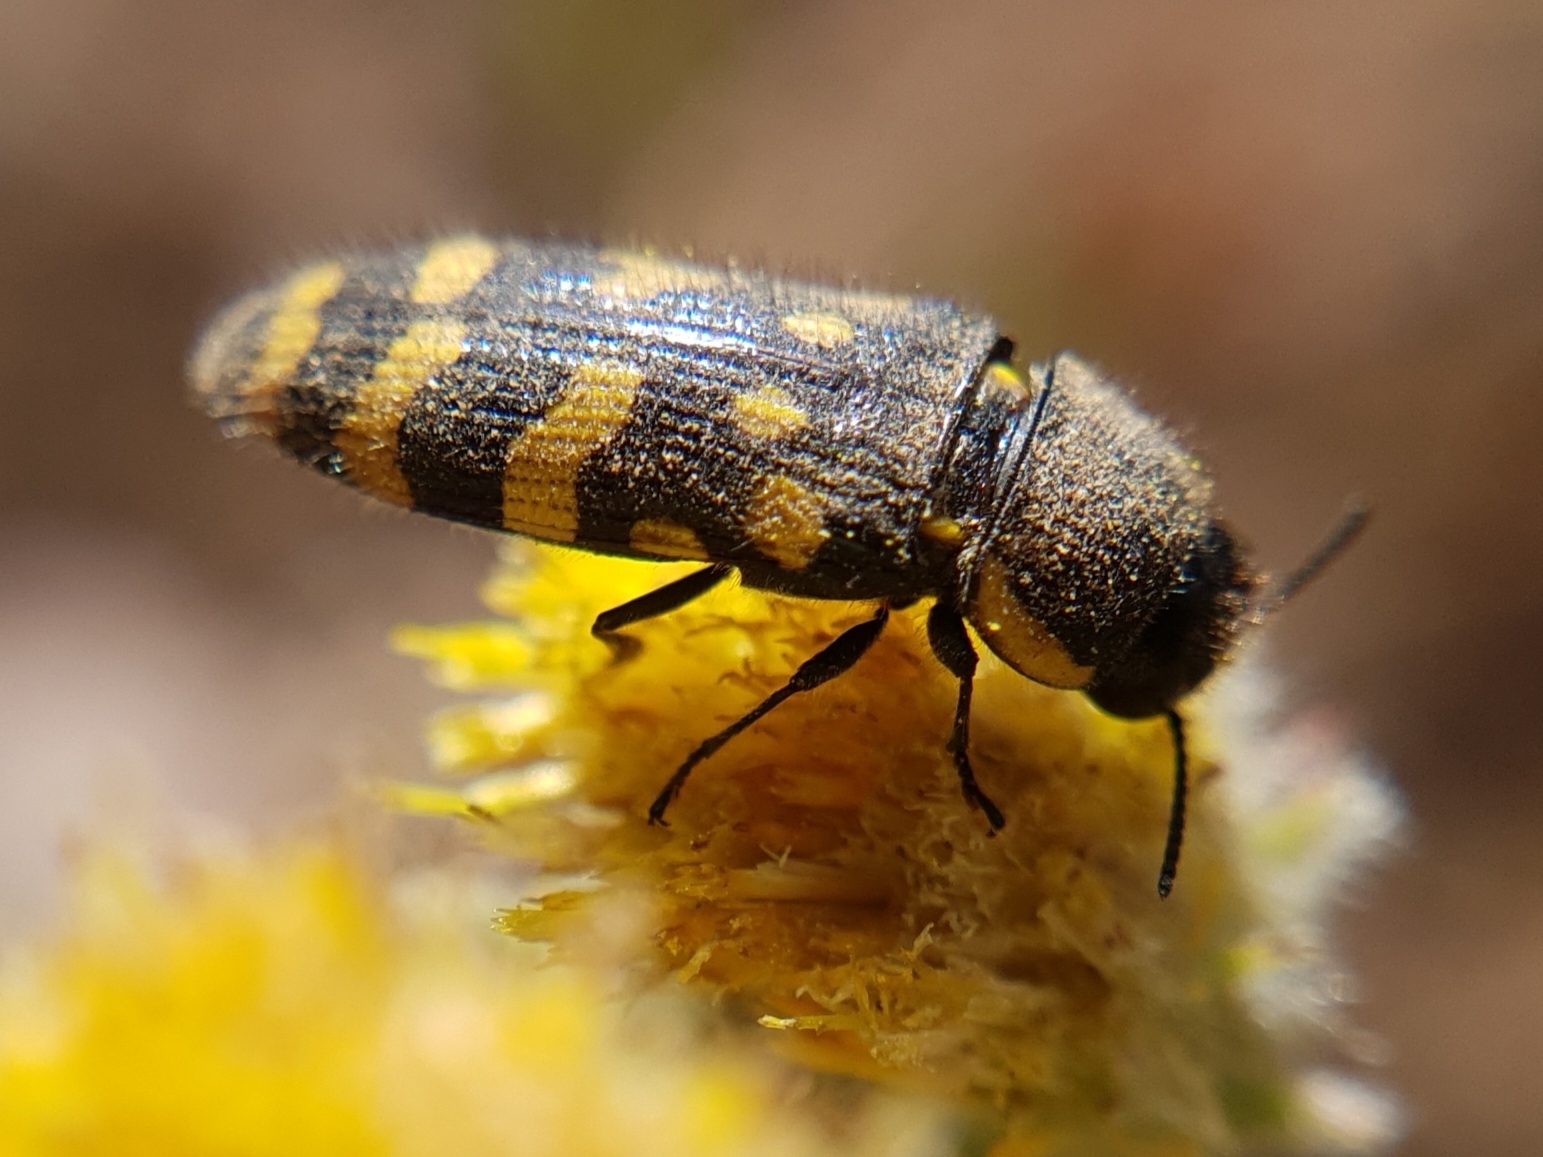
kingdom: Animalia
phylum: Arthropoda
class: Insecta
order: Coleoptera
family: Buprestidae
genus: Acmaeodera
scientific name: Acmaeodera quadrifasciata
